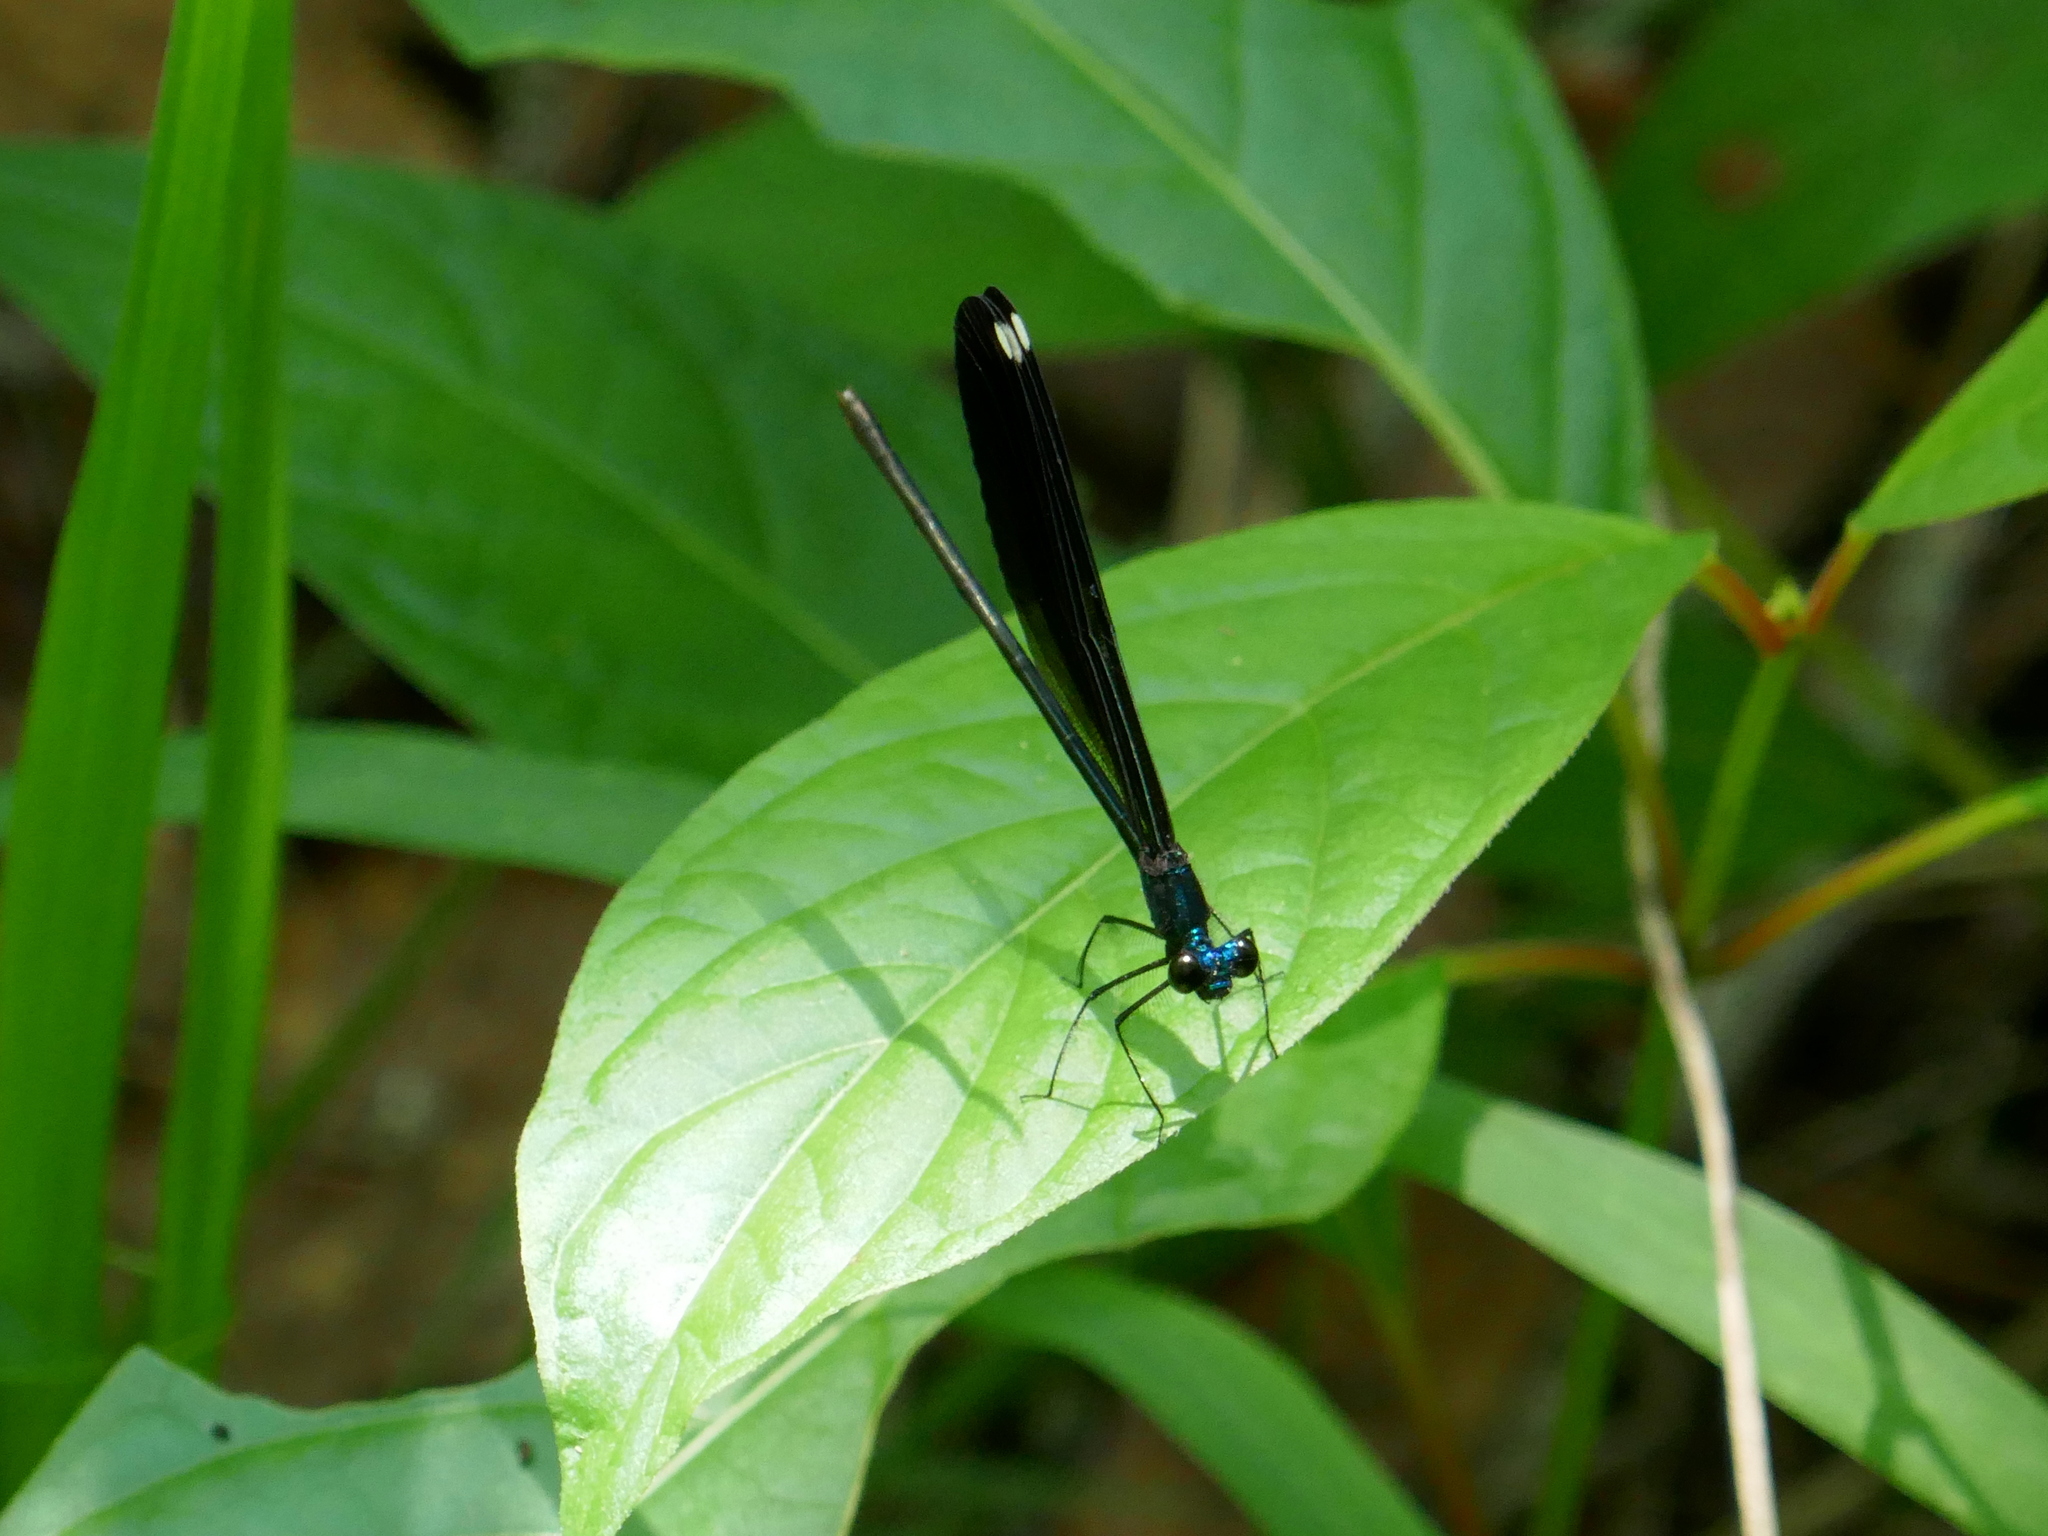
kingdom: Animalia
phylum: Arthropoda
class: Insecta
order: Odonata
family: Calopterygidae
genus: Calopteryx
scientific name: Calopteryx maculata
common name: Ebony jewelwing
